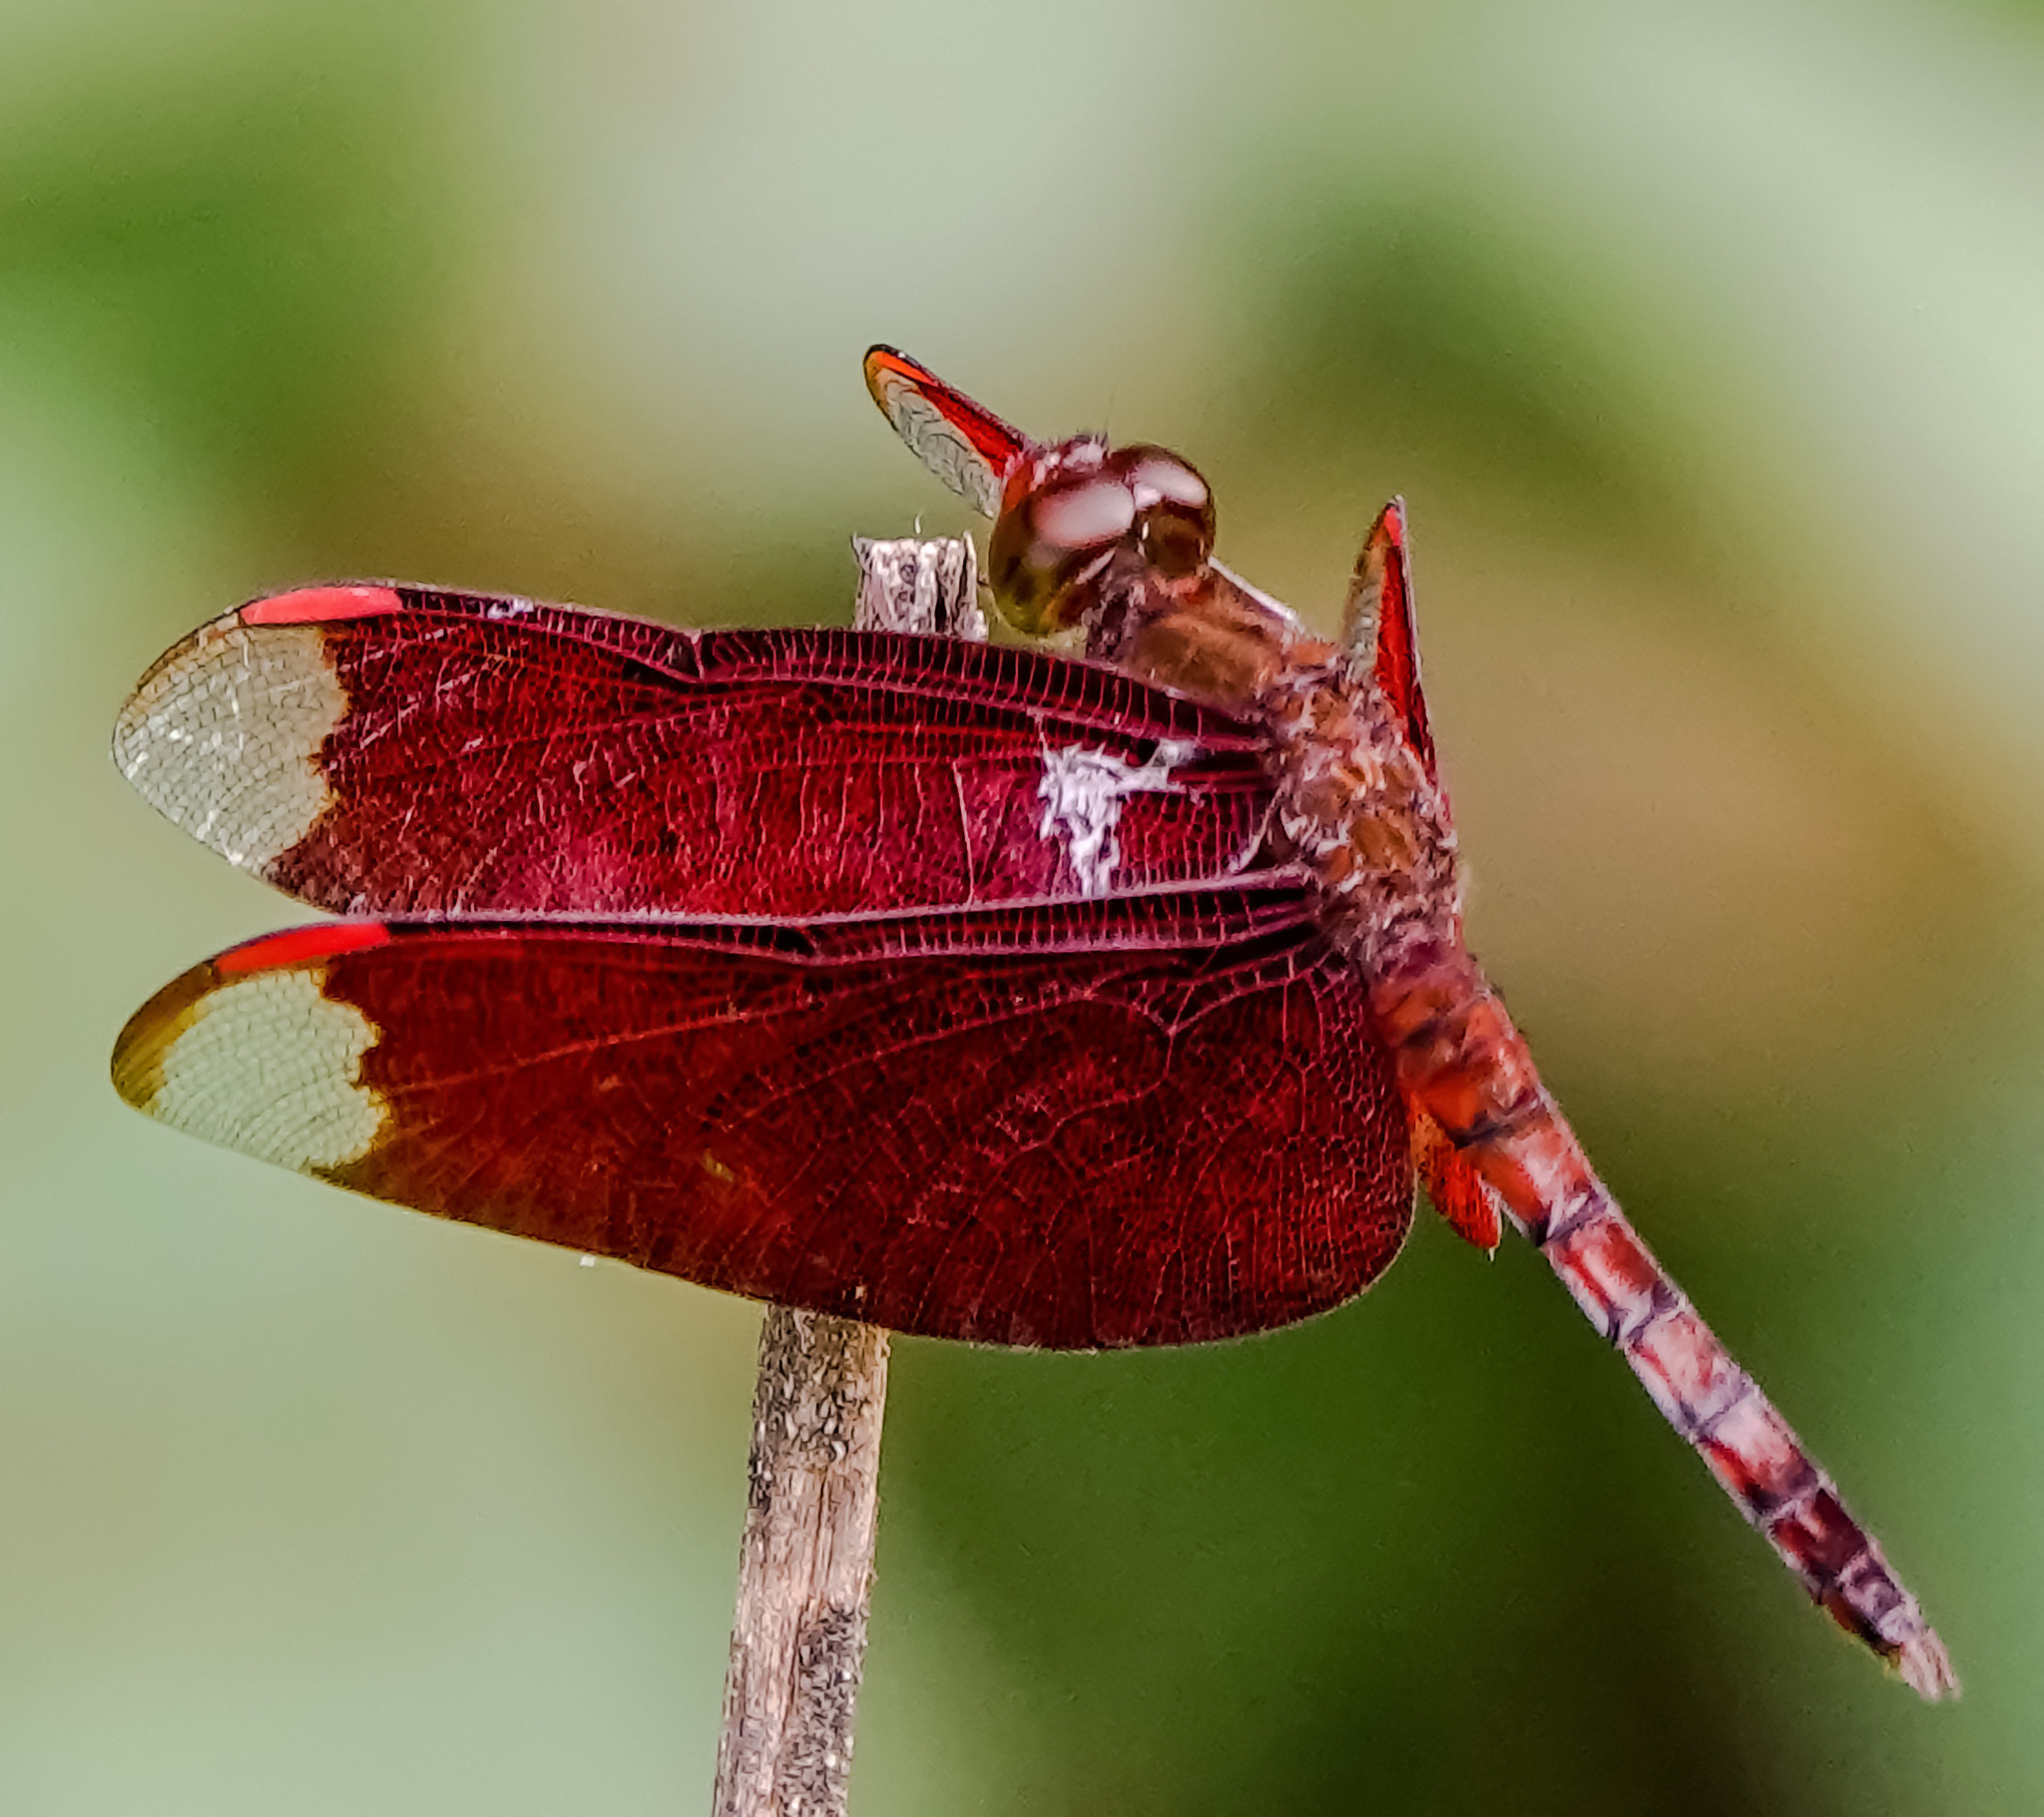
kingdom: Animalia
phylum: Arthropoda
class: Insecta
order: Odonata
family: Libellulidae
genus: Neurothemis
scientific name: Neurothemis fulvia
